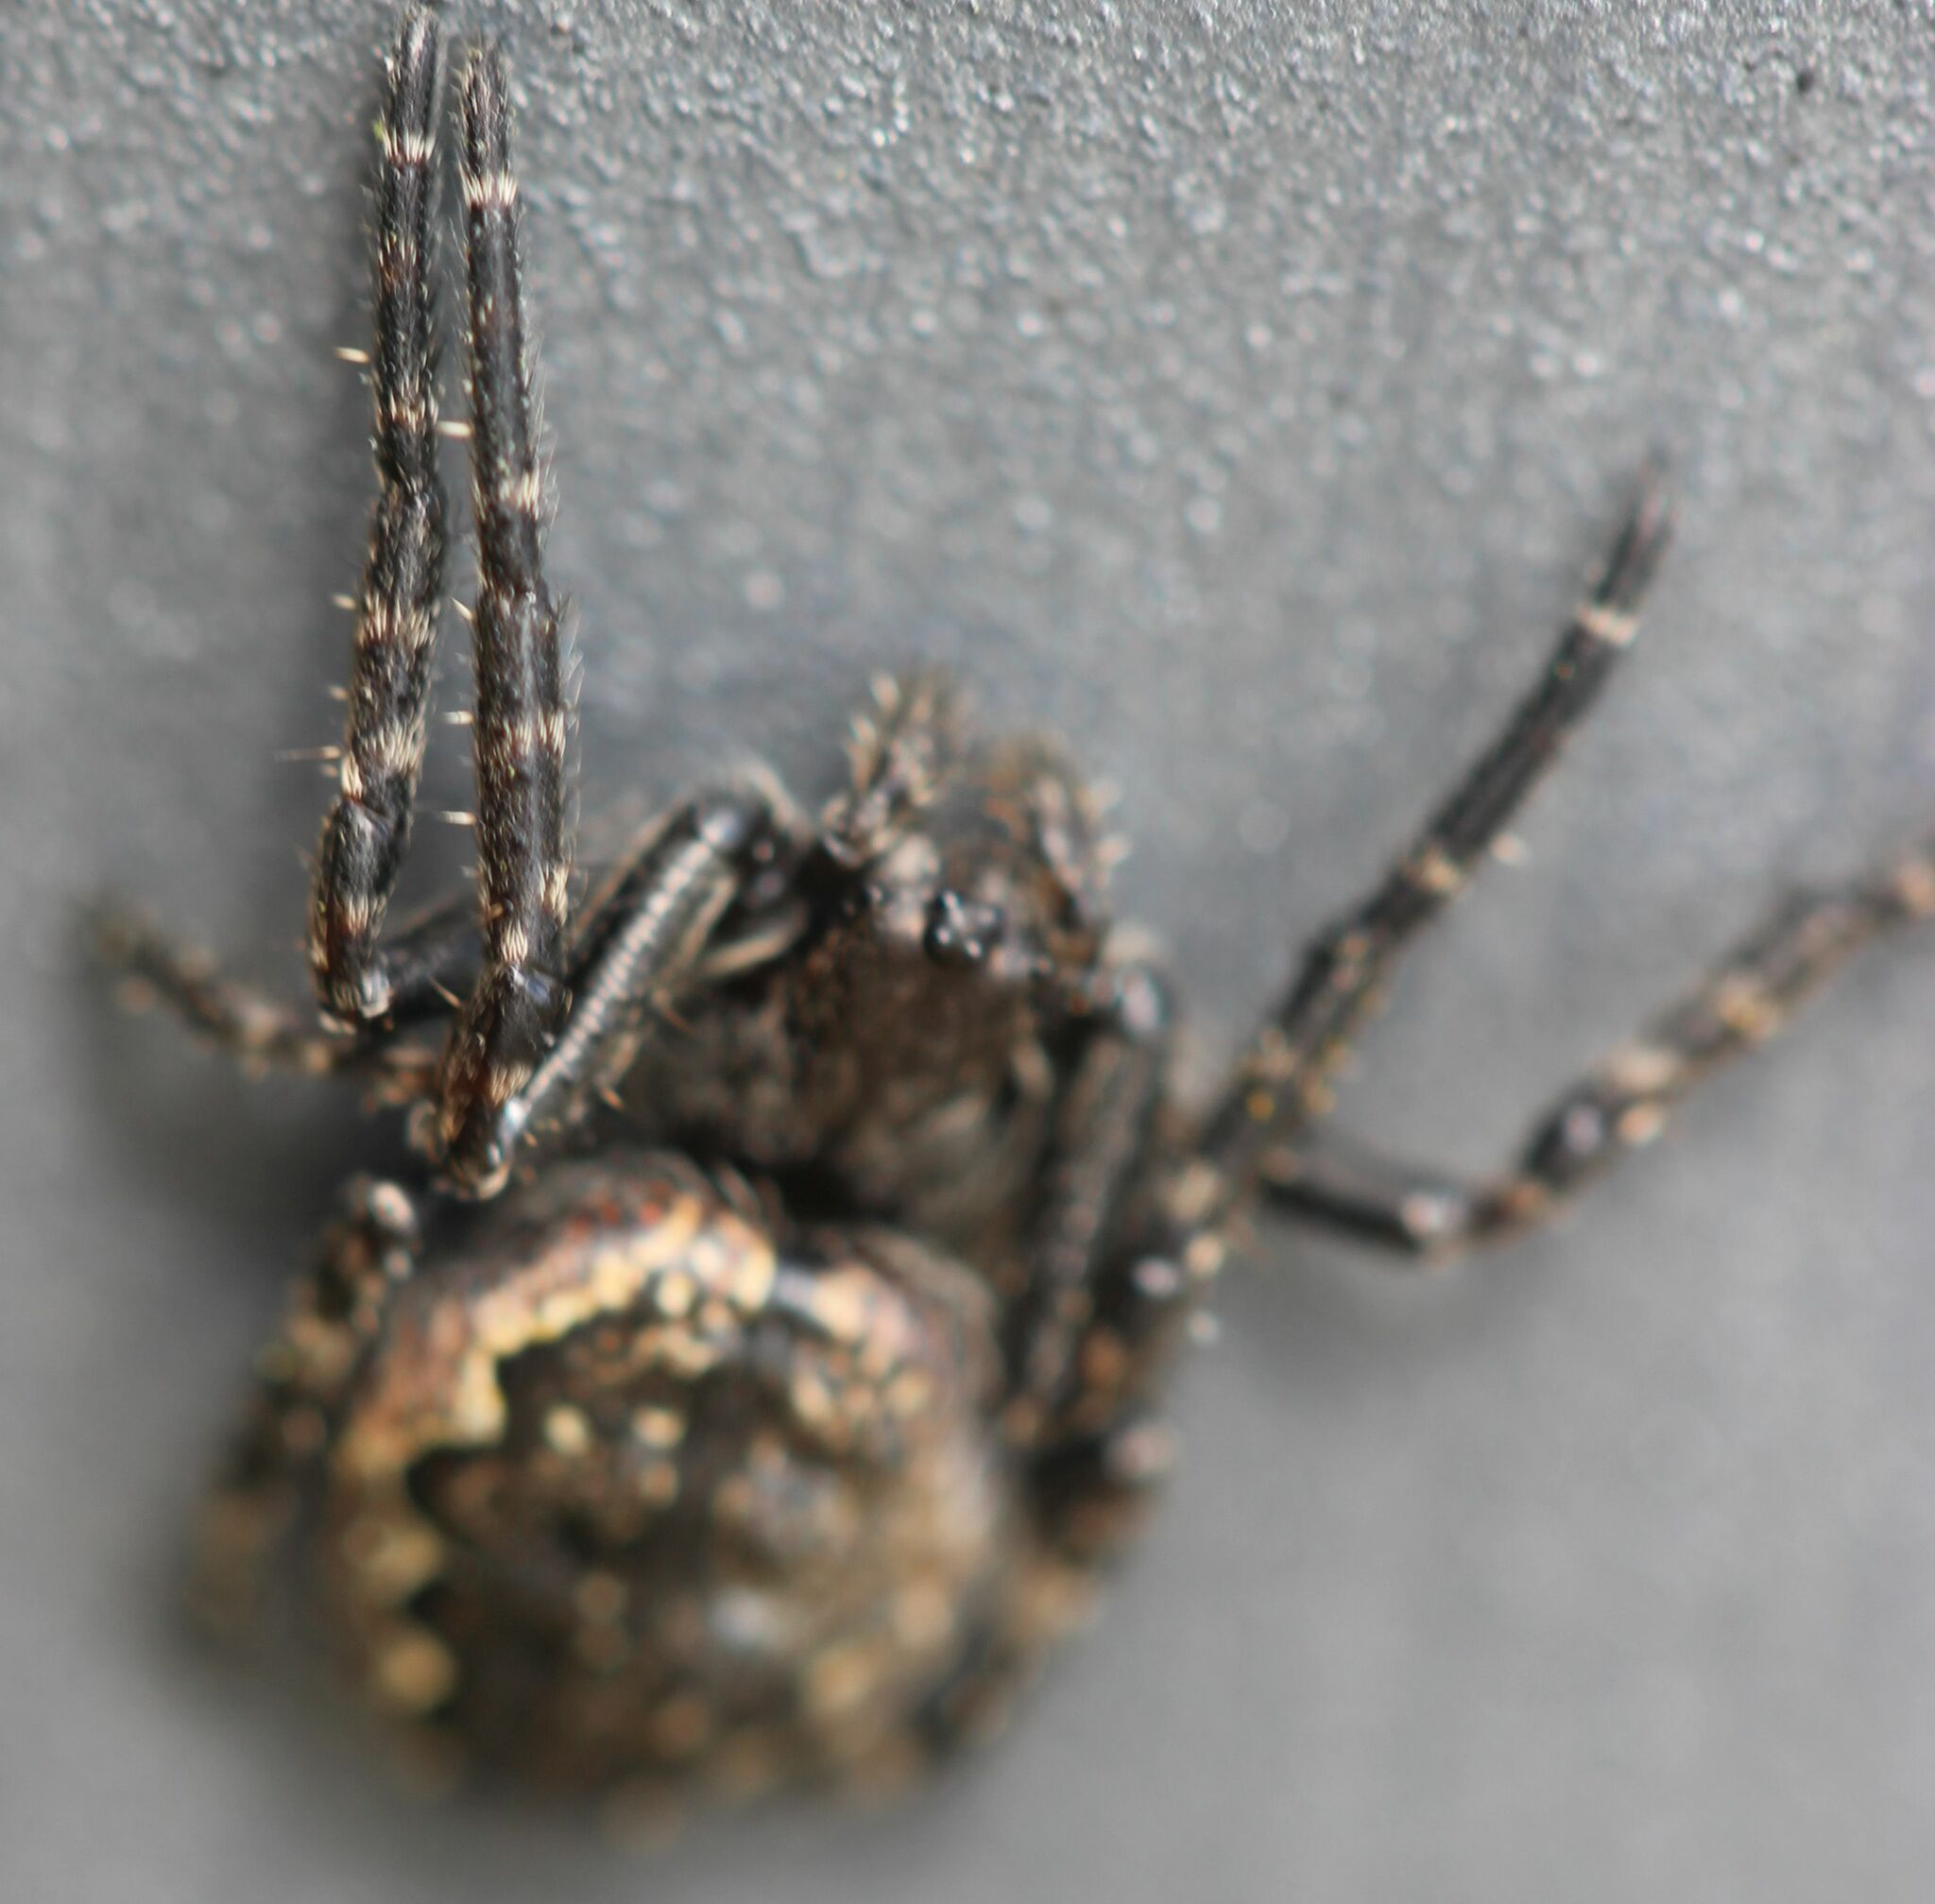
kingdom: Animalia
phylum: Arthropoda
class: Arachnida
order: Araneae
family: Araneidae
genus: Nuctenea
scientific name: Nuctenea umbratica
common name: Toad spider
